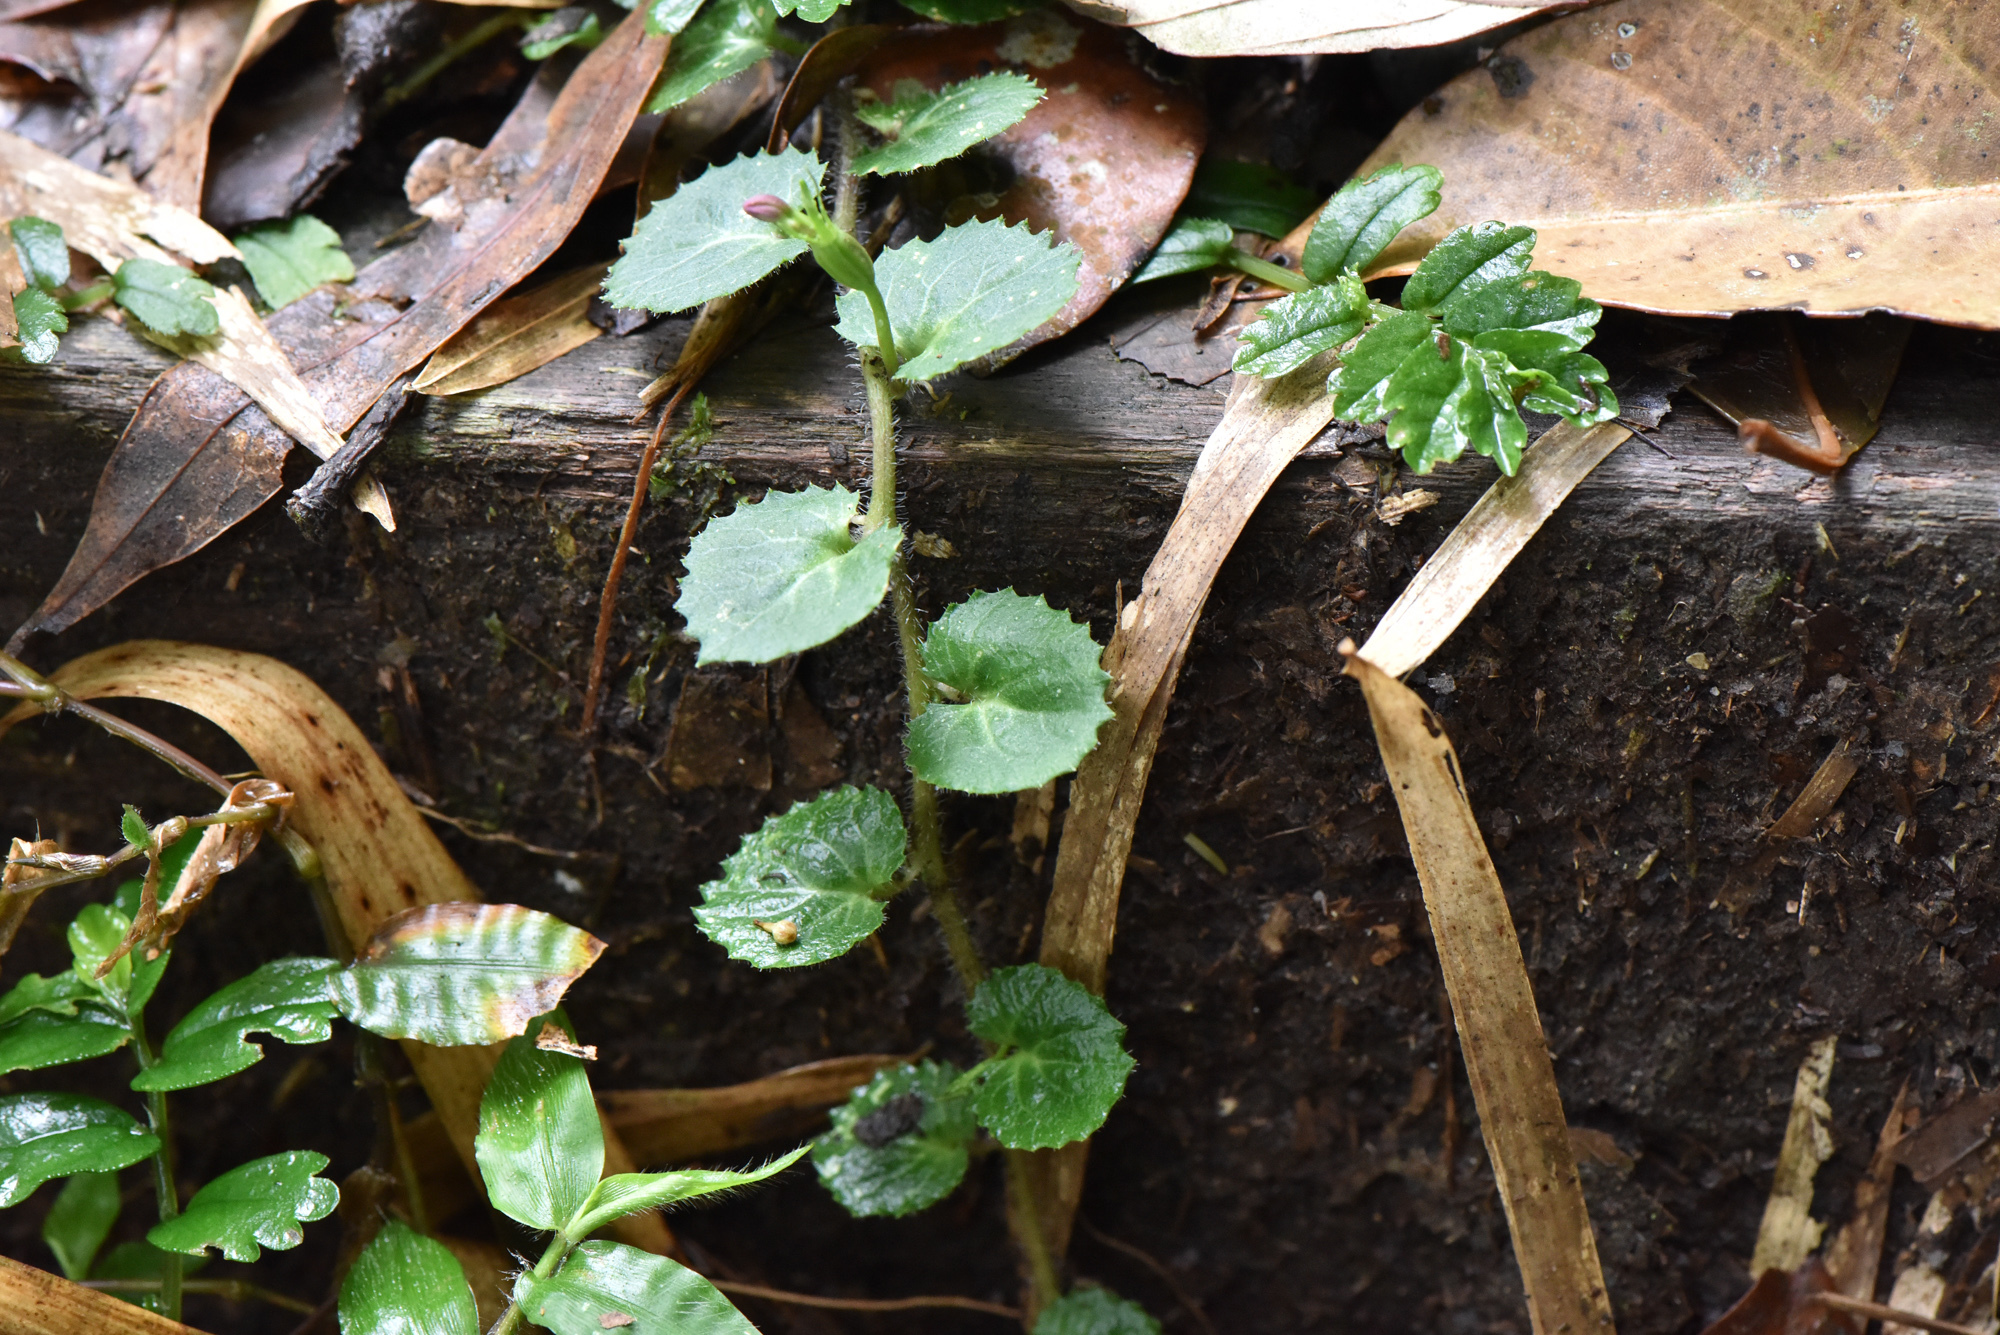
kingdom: Plantae
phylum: Tracheophyta
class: Magnoliopsida
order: Asterales
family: Campanulaceae
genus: Lobelia
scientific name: Lobelia nummularia
